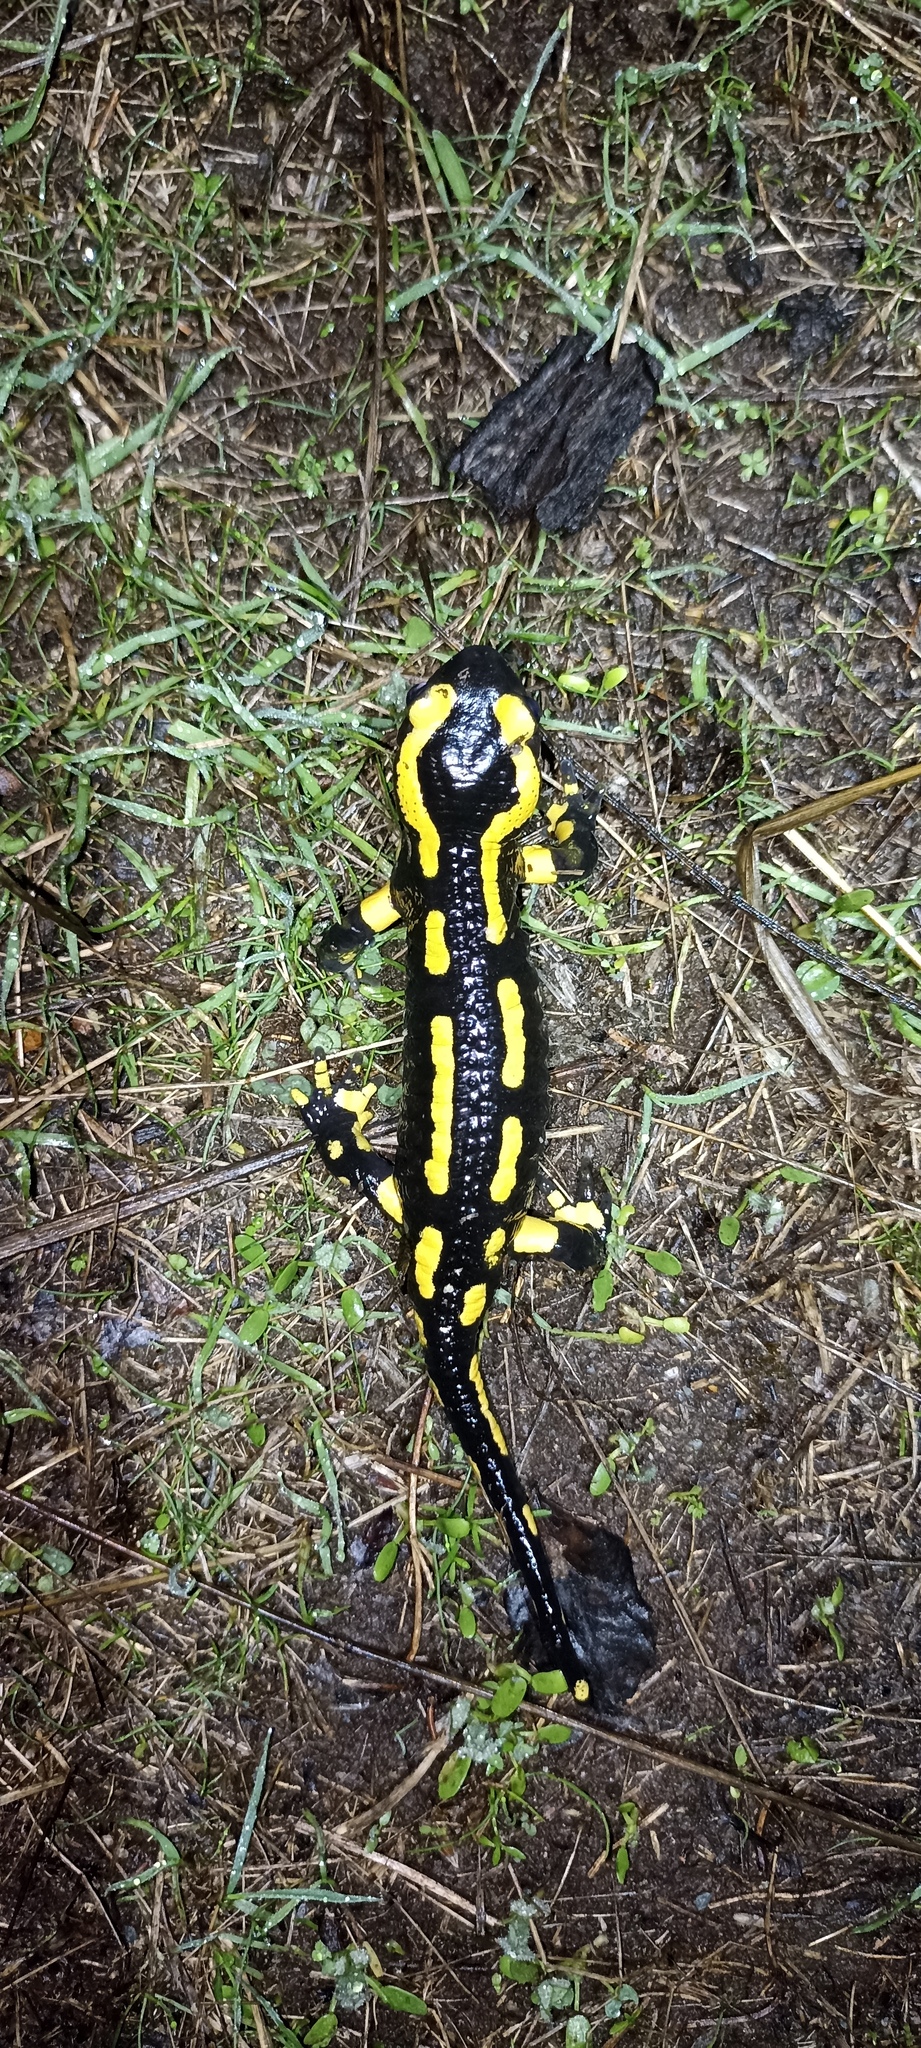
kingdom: Animalia
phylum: Chordata
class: Amphibia
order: Caudata
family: Salamandridae
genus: Salamandra
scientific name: Salamandra salamandra
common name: Fire salamander
